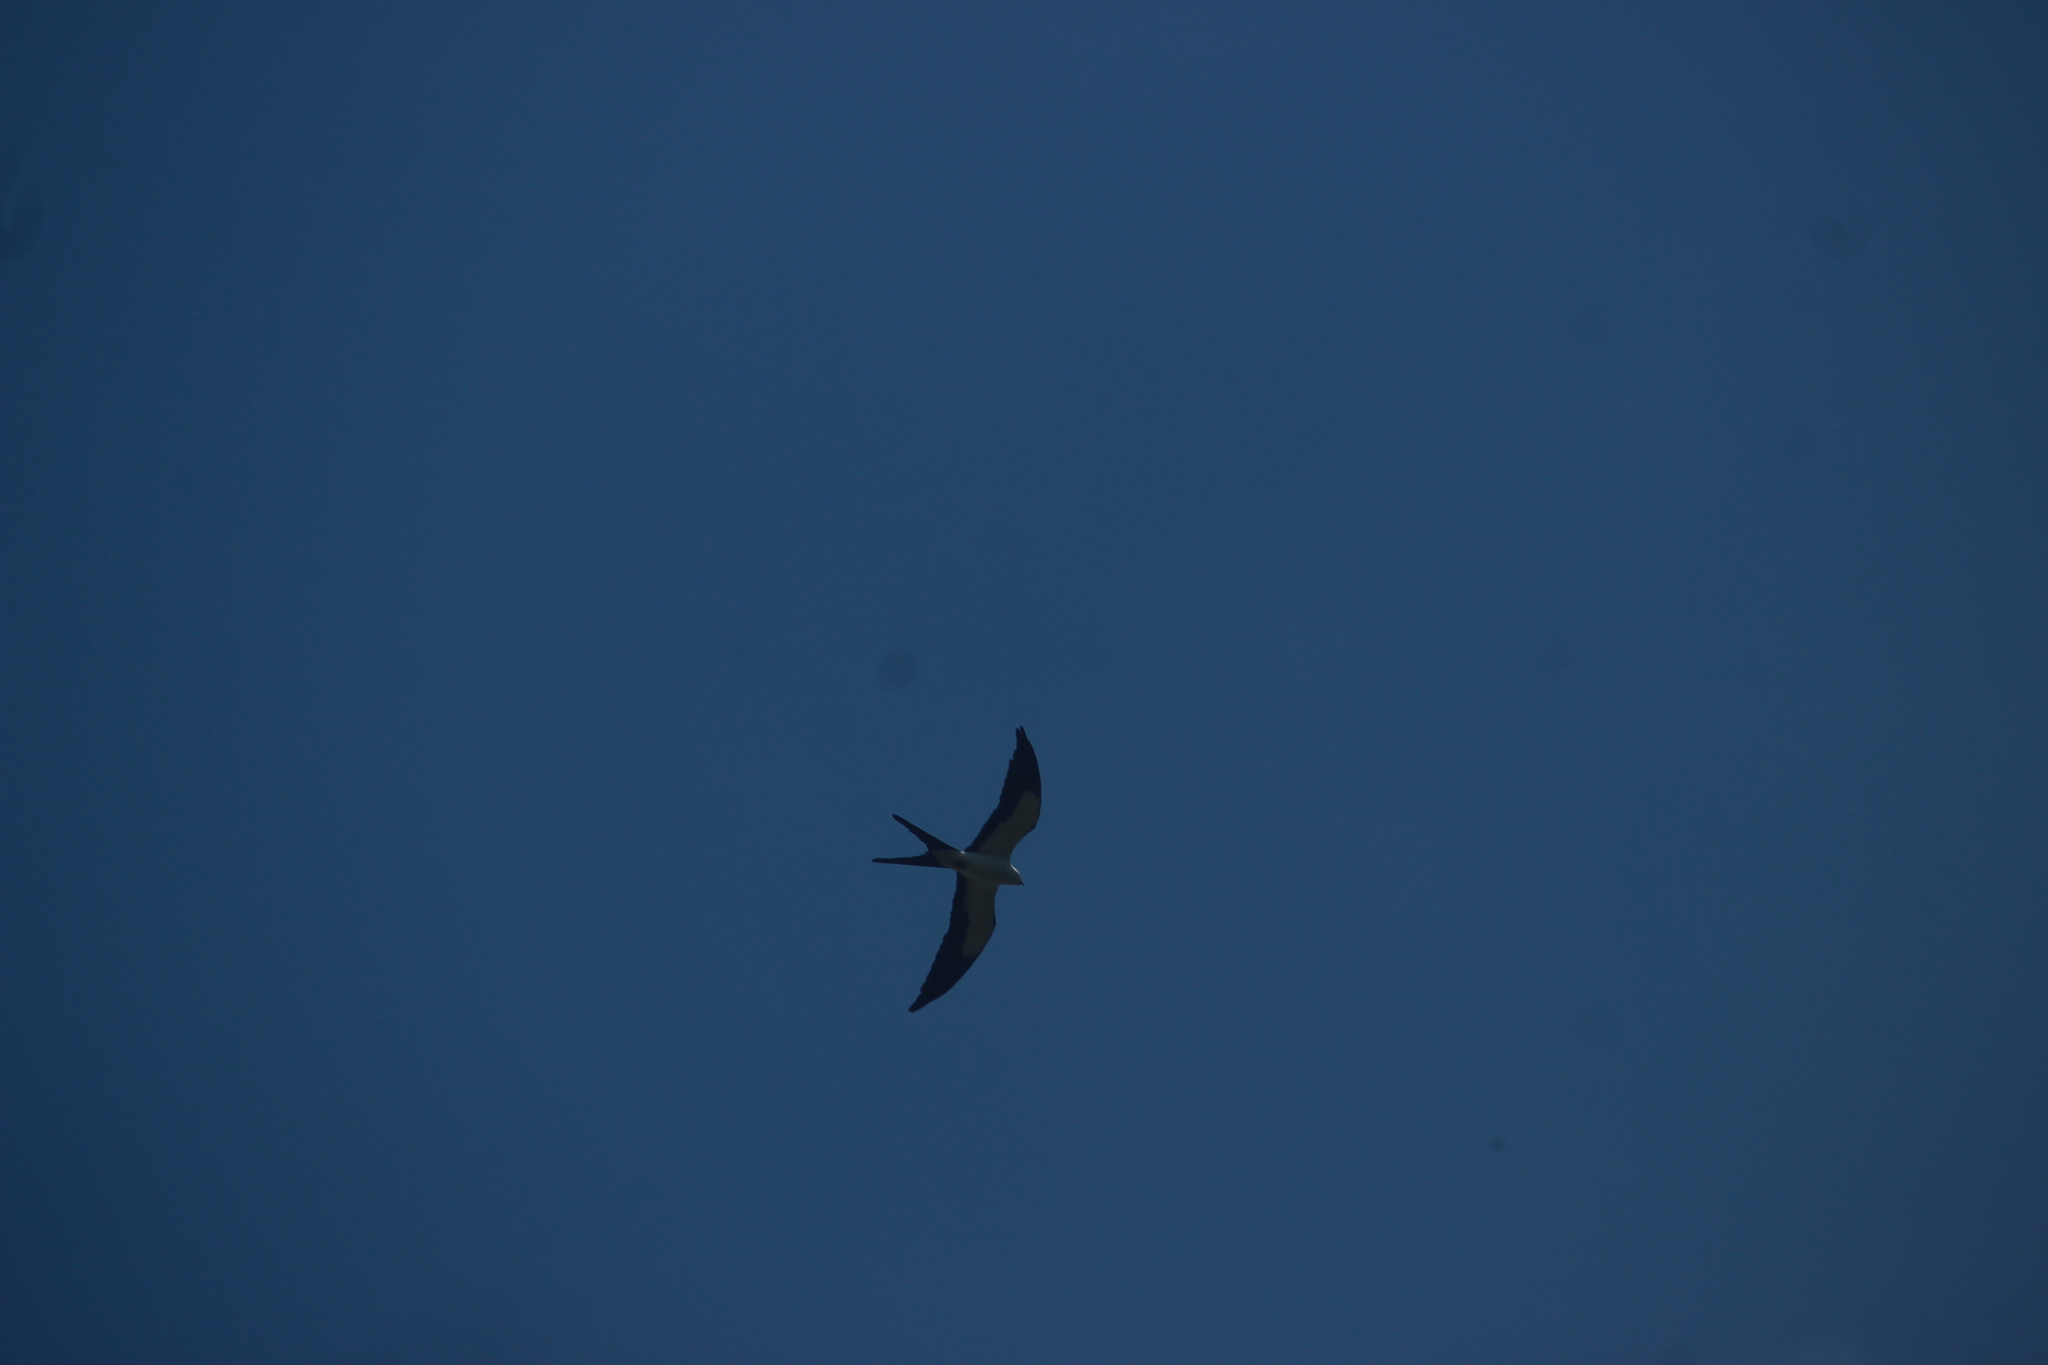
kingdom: Animalia
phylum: Chordata
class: Aves
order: Accipitriformes
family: Accipitridae
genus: Elanoides
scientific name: Elanoides forficatus
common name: Swallow-tailed kite
